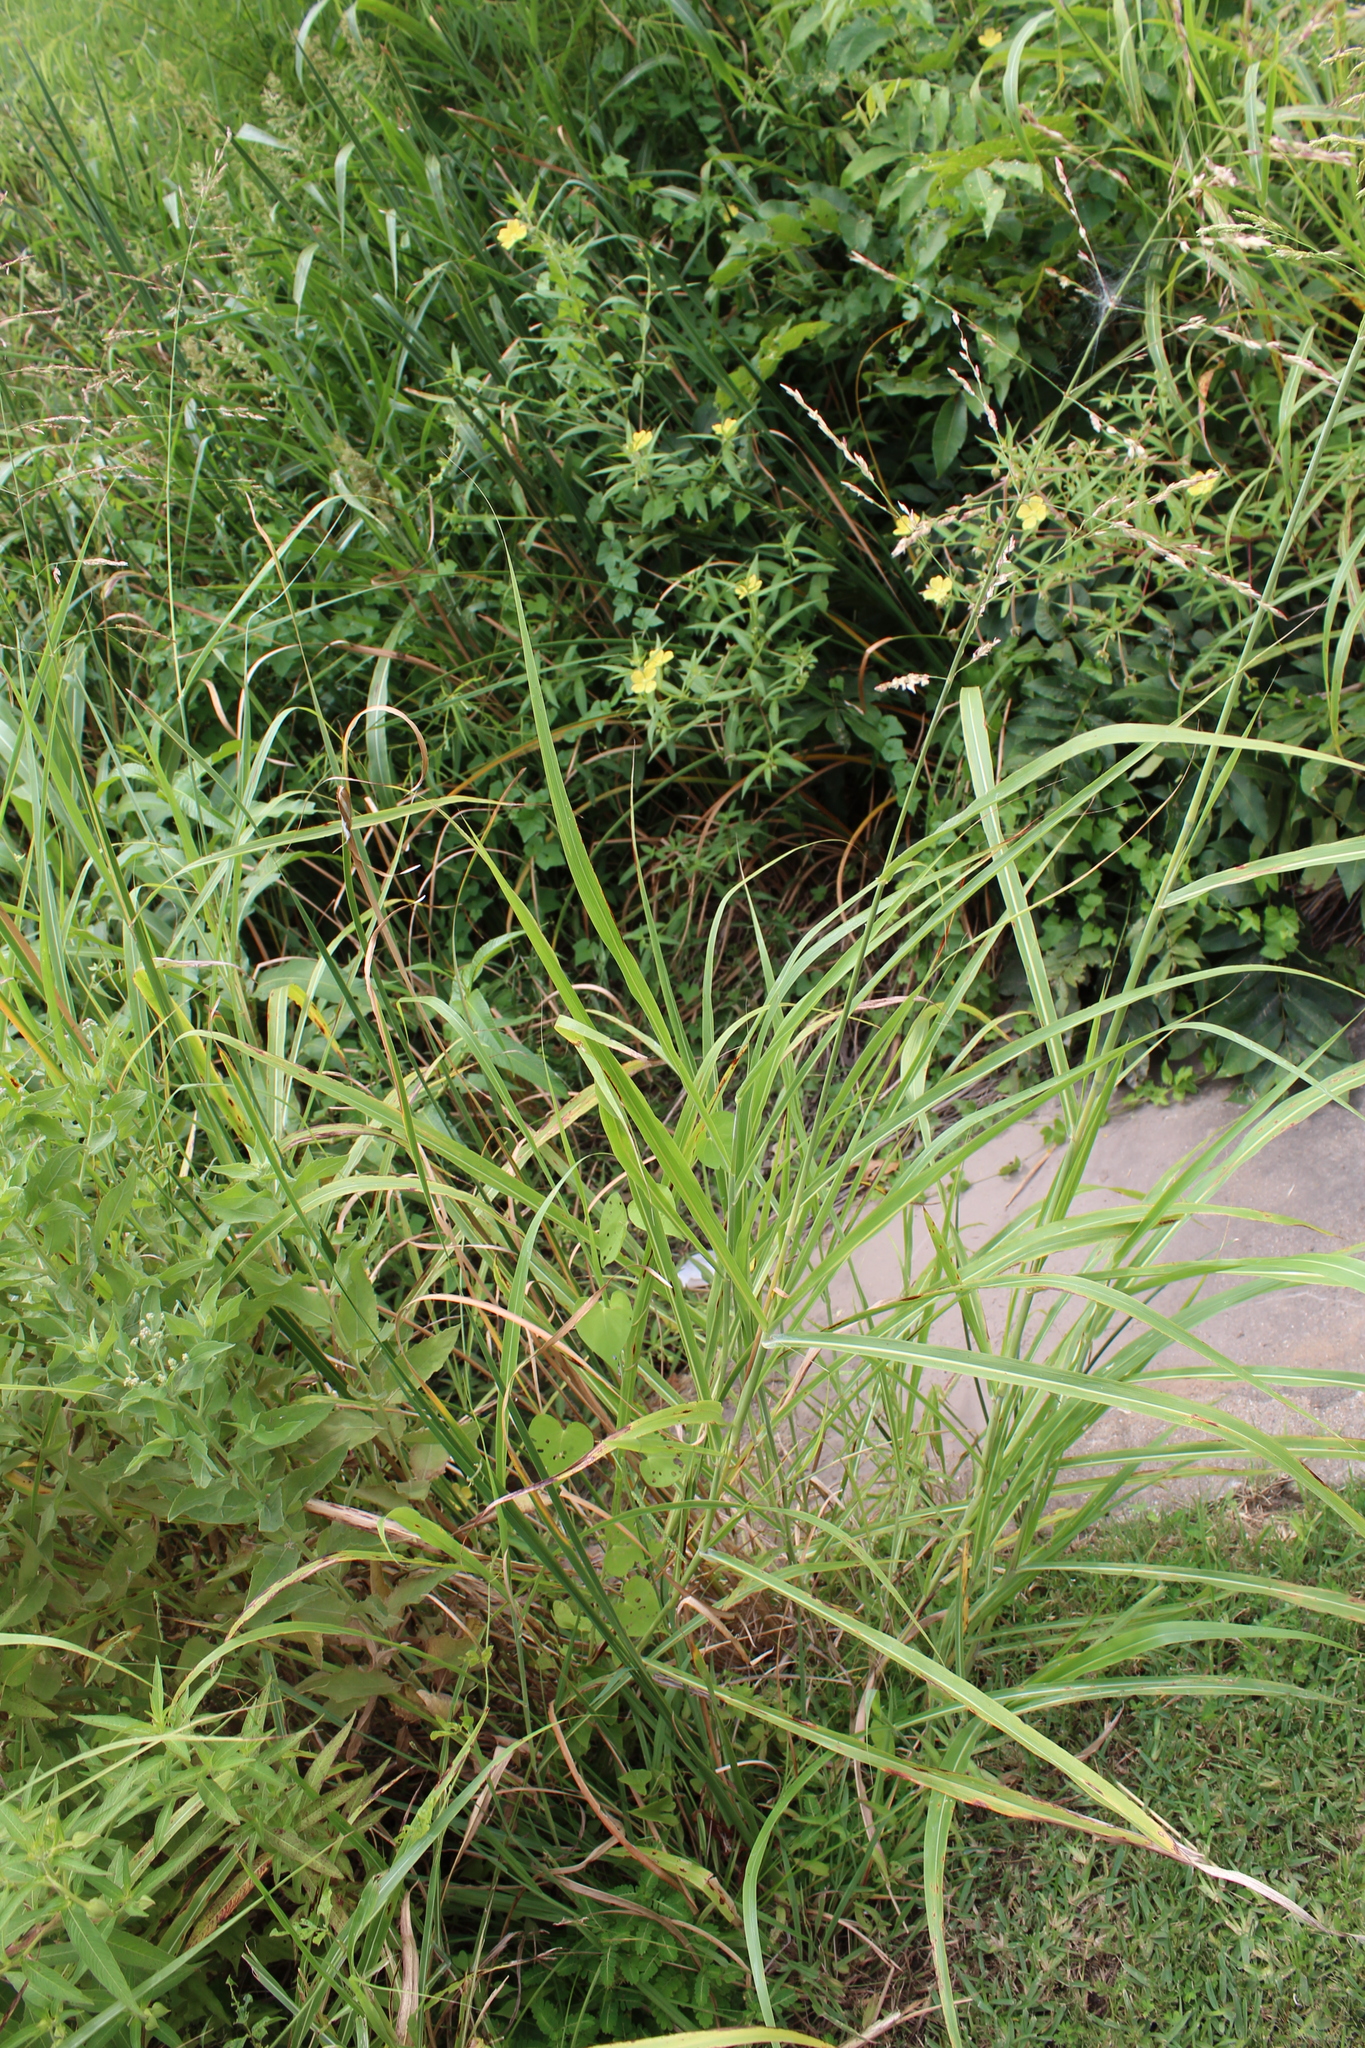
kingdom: Plantae
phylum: Tracheophyta
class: Liliopsida
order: Poales
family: Poaceae
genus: Sorghum
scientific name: Sorghum halepense
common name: Johnson-grass
